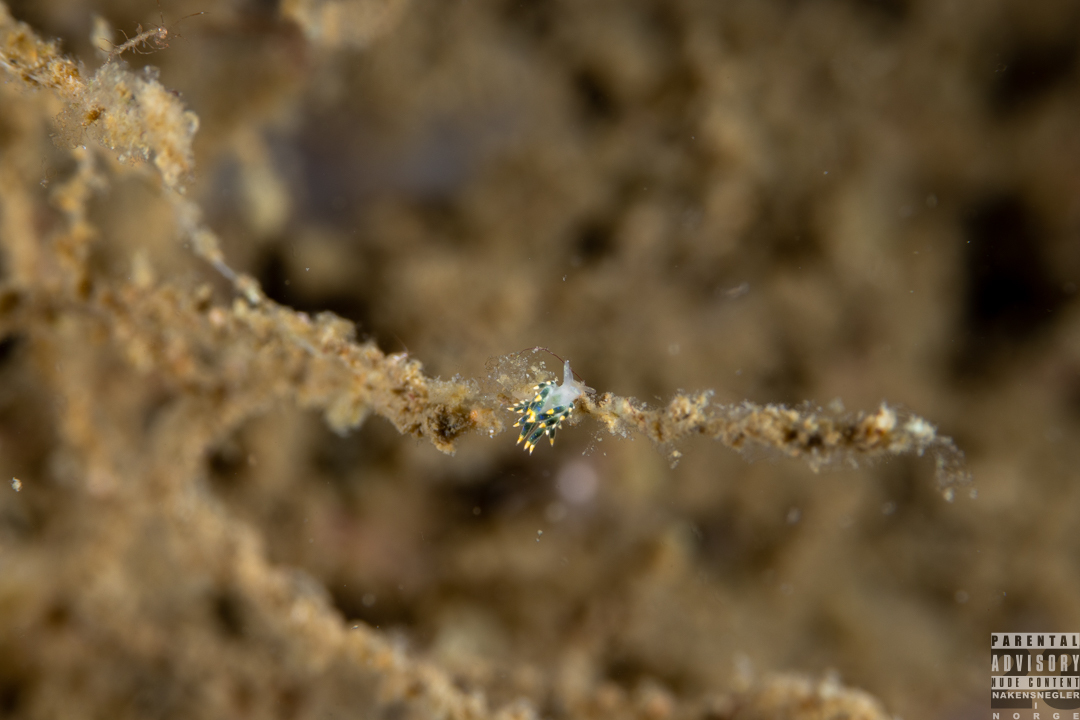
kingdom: Animalia
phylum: Mollusca
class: Gastropoda
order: Nudibranchia
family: Trinchesiidae
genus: Trinchesia
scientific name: Trinchesia cuanensis
